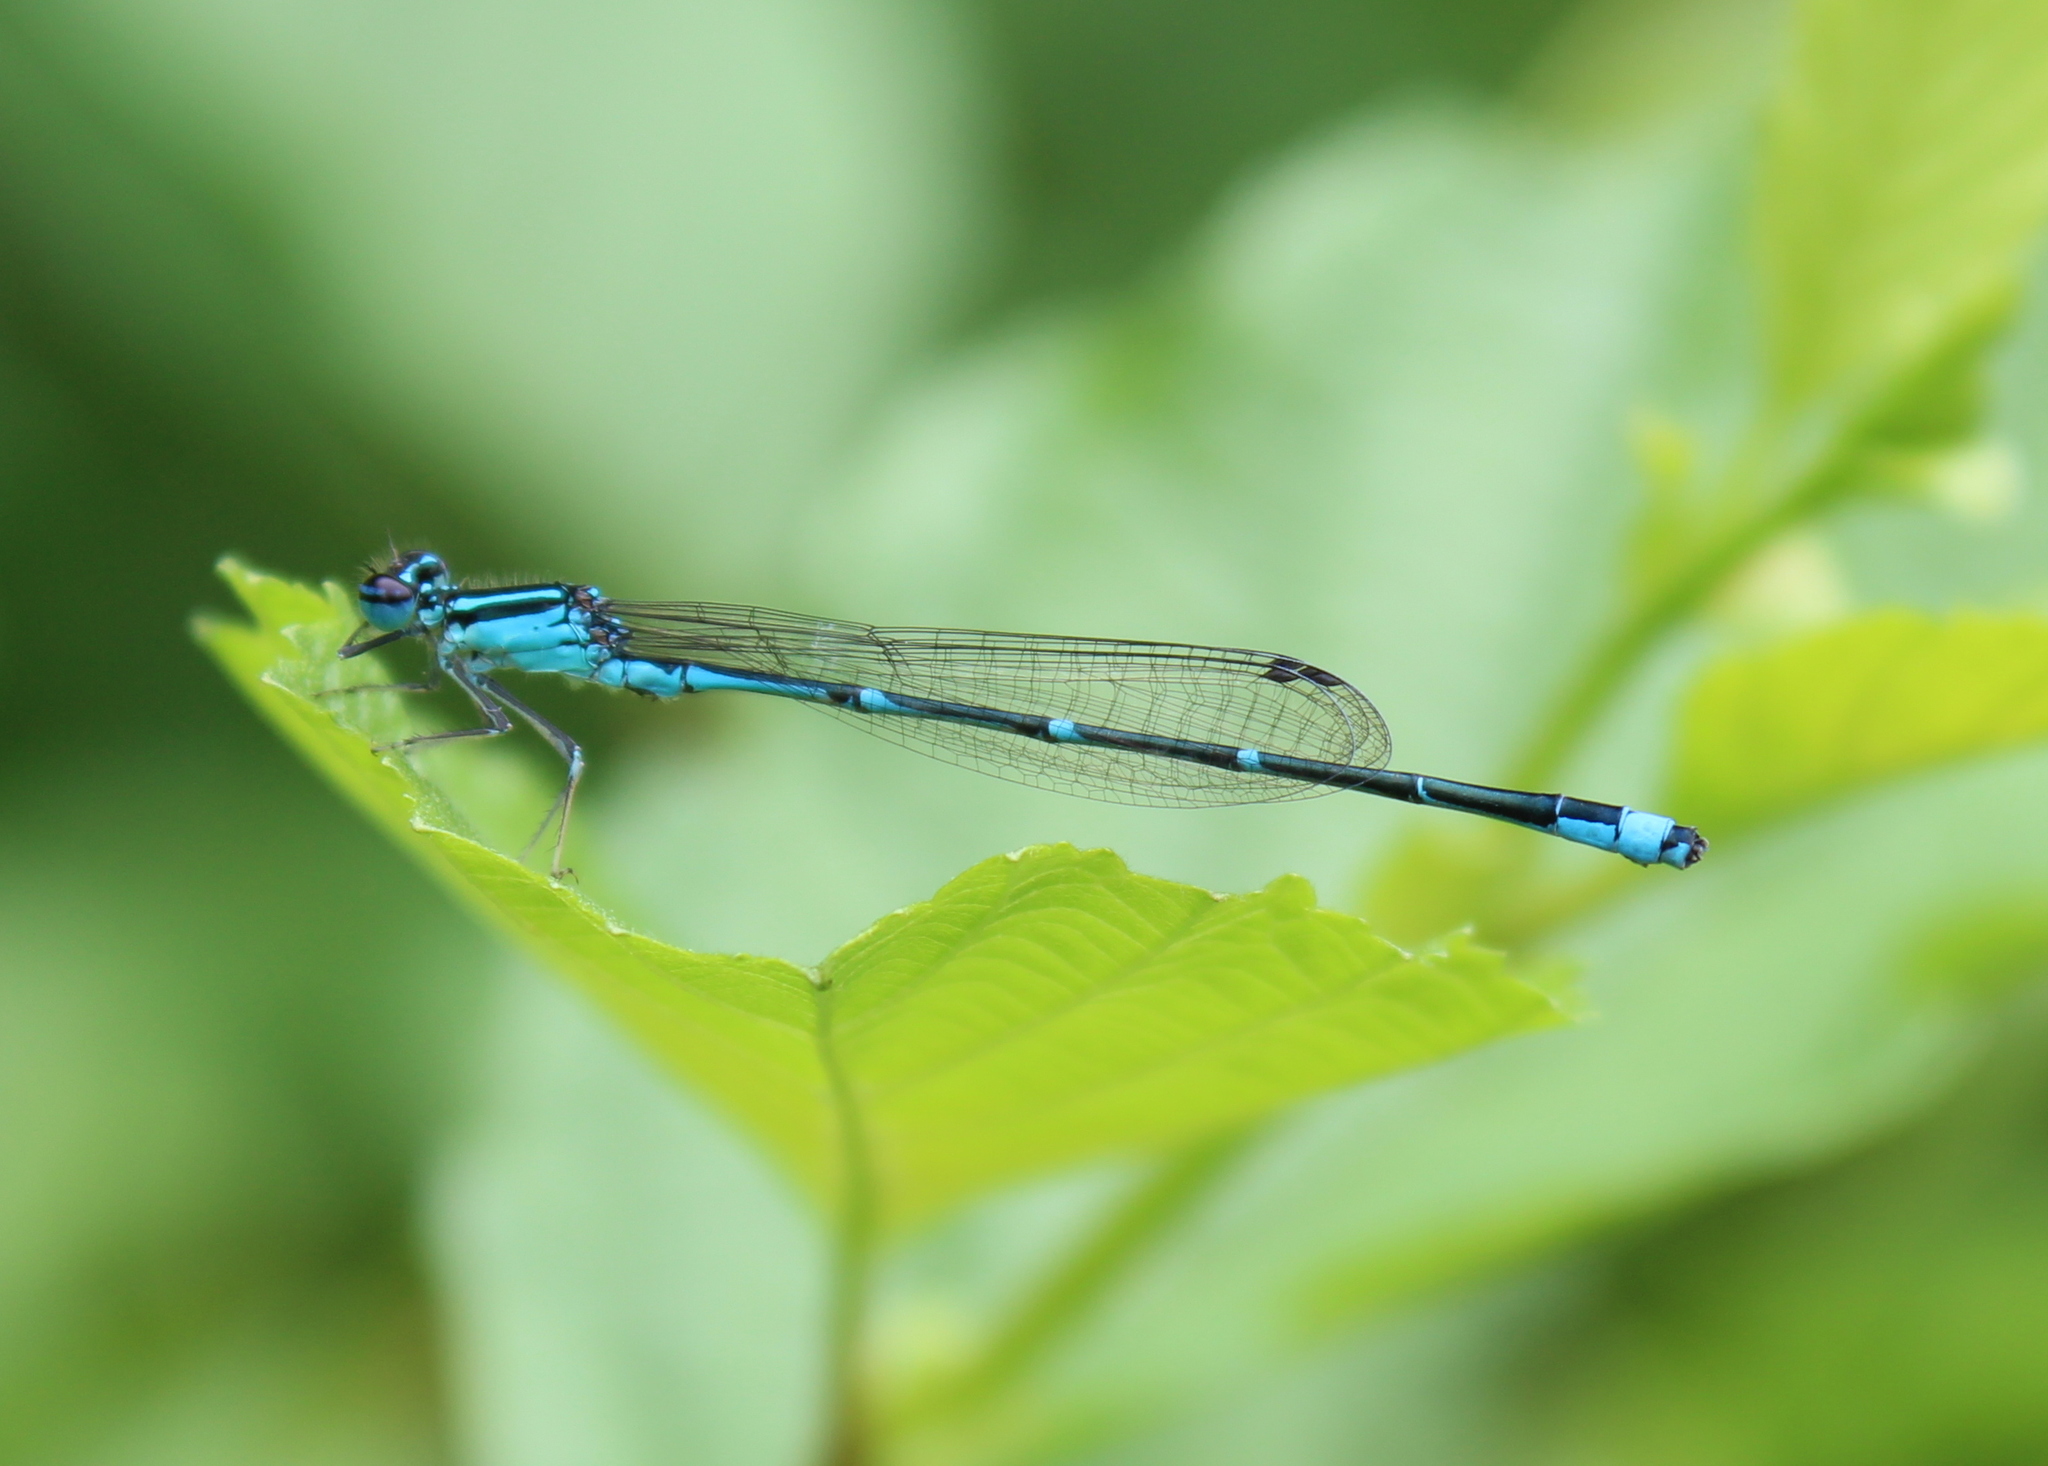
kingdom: Animalia
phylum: Arthropoda
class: Insecta
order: Odonata
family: Coenagrionidae
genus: Enallagma
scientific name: Enallagma exsulans
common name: Stream bluet
